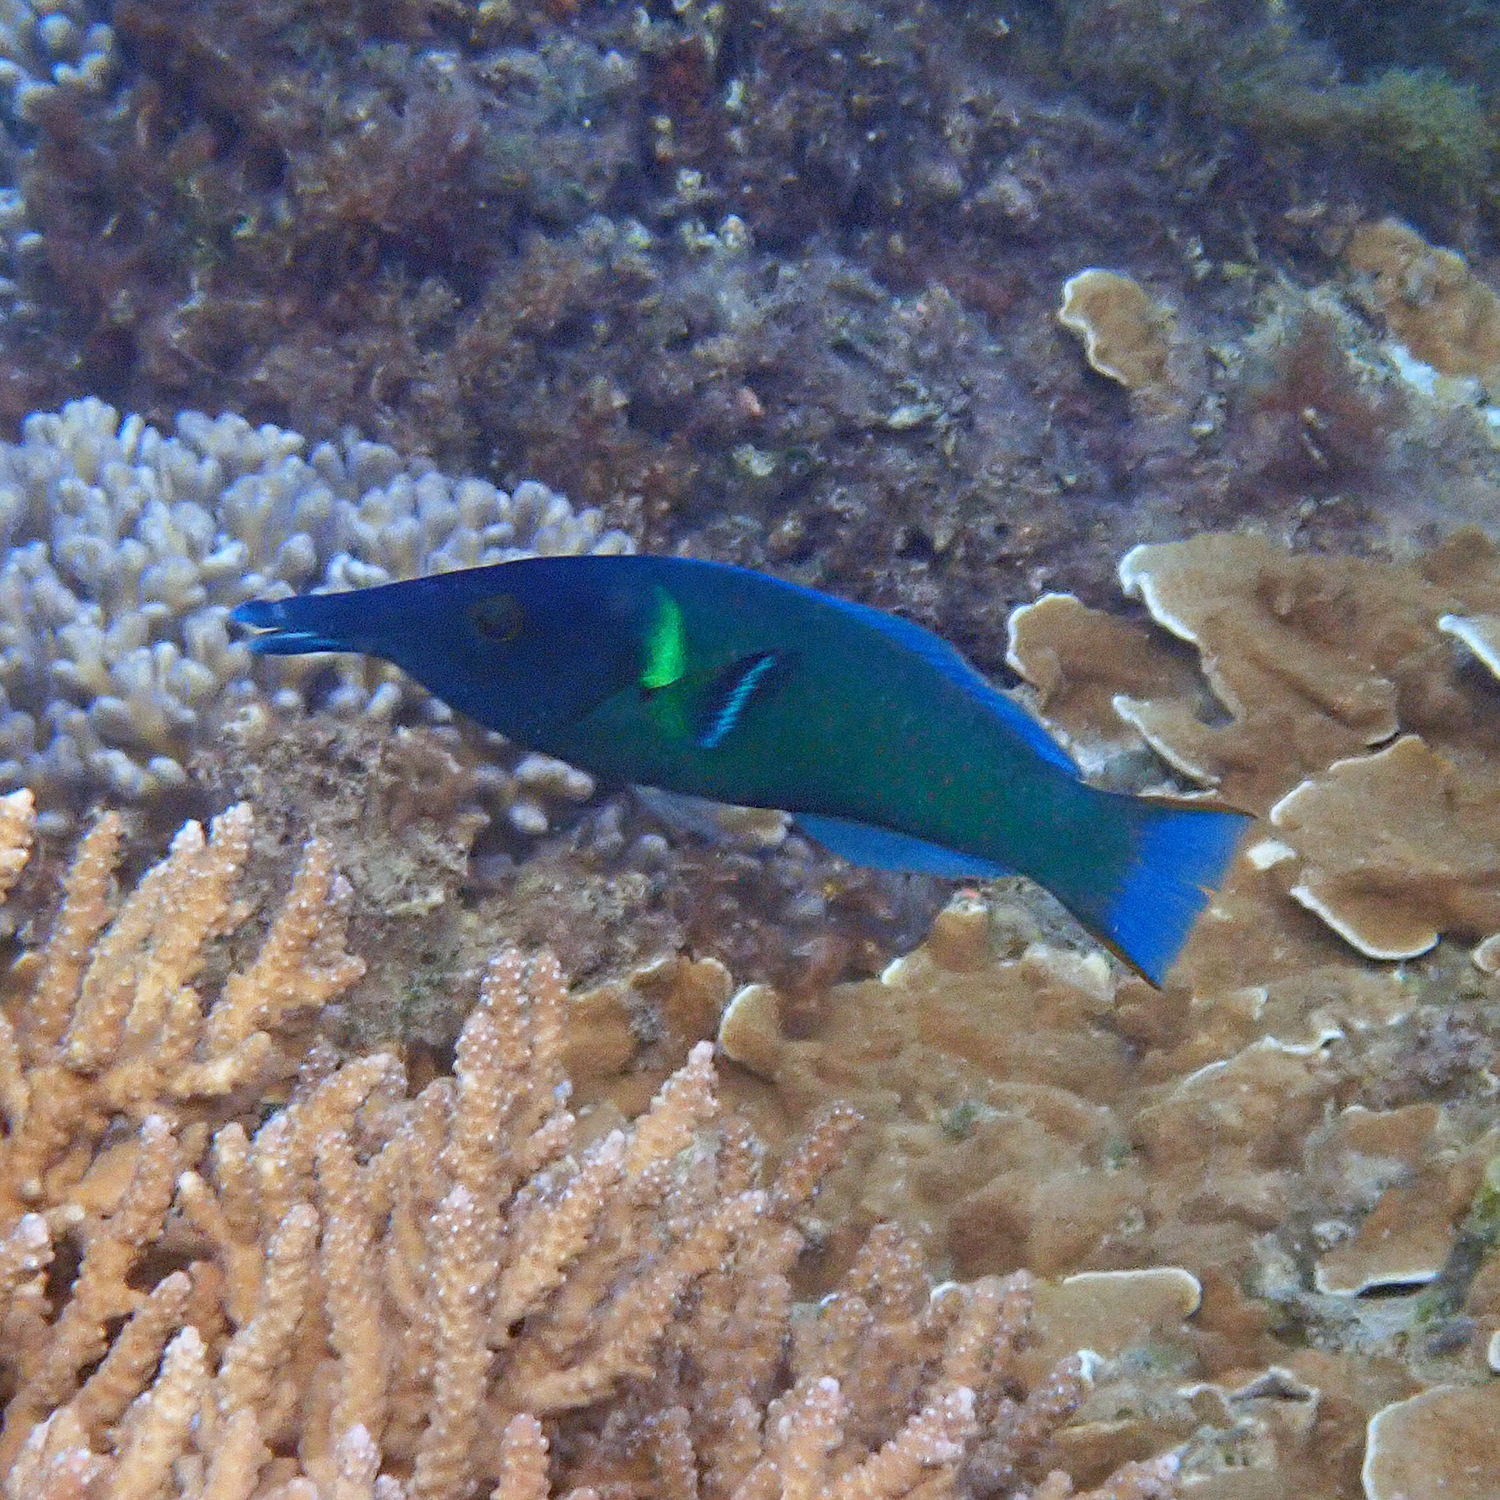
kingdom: Animalia
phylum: Chordata
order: Perciformes
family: Labridae
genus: Gomphosus
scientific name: Gomphosus varius
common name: Bird wrasse
